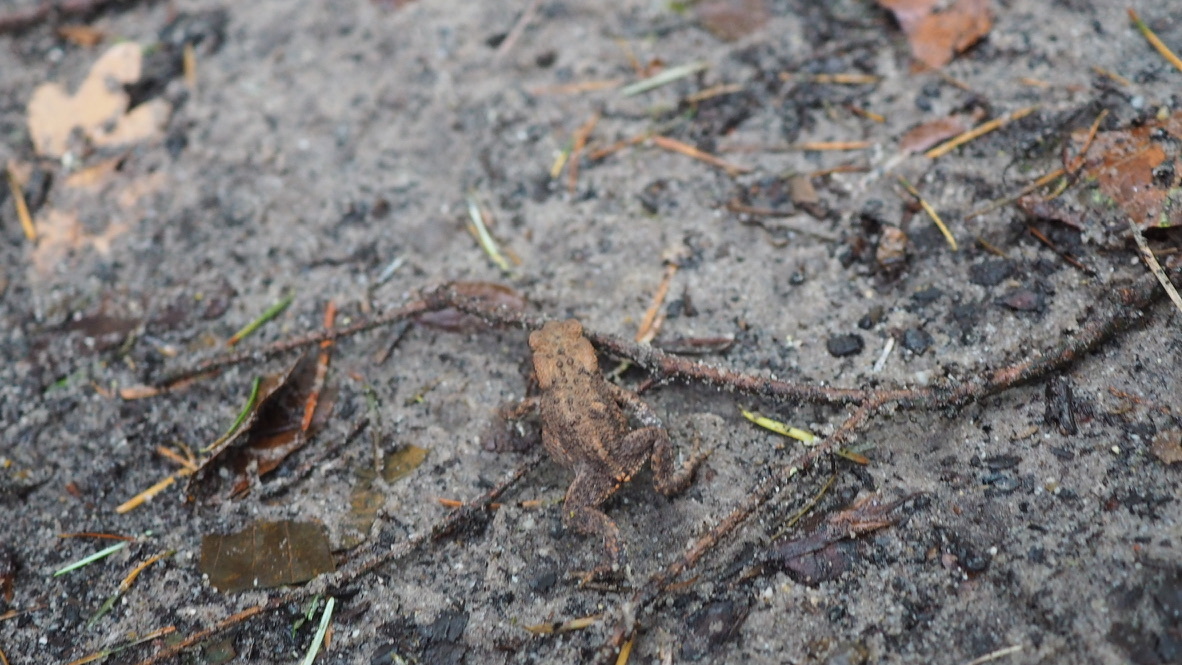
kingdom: Animalia
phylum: Chordata
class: Amphibia
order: Anura
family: Bufonidae
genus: Bufo
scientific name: Bufo bufo
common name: Common toad
